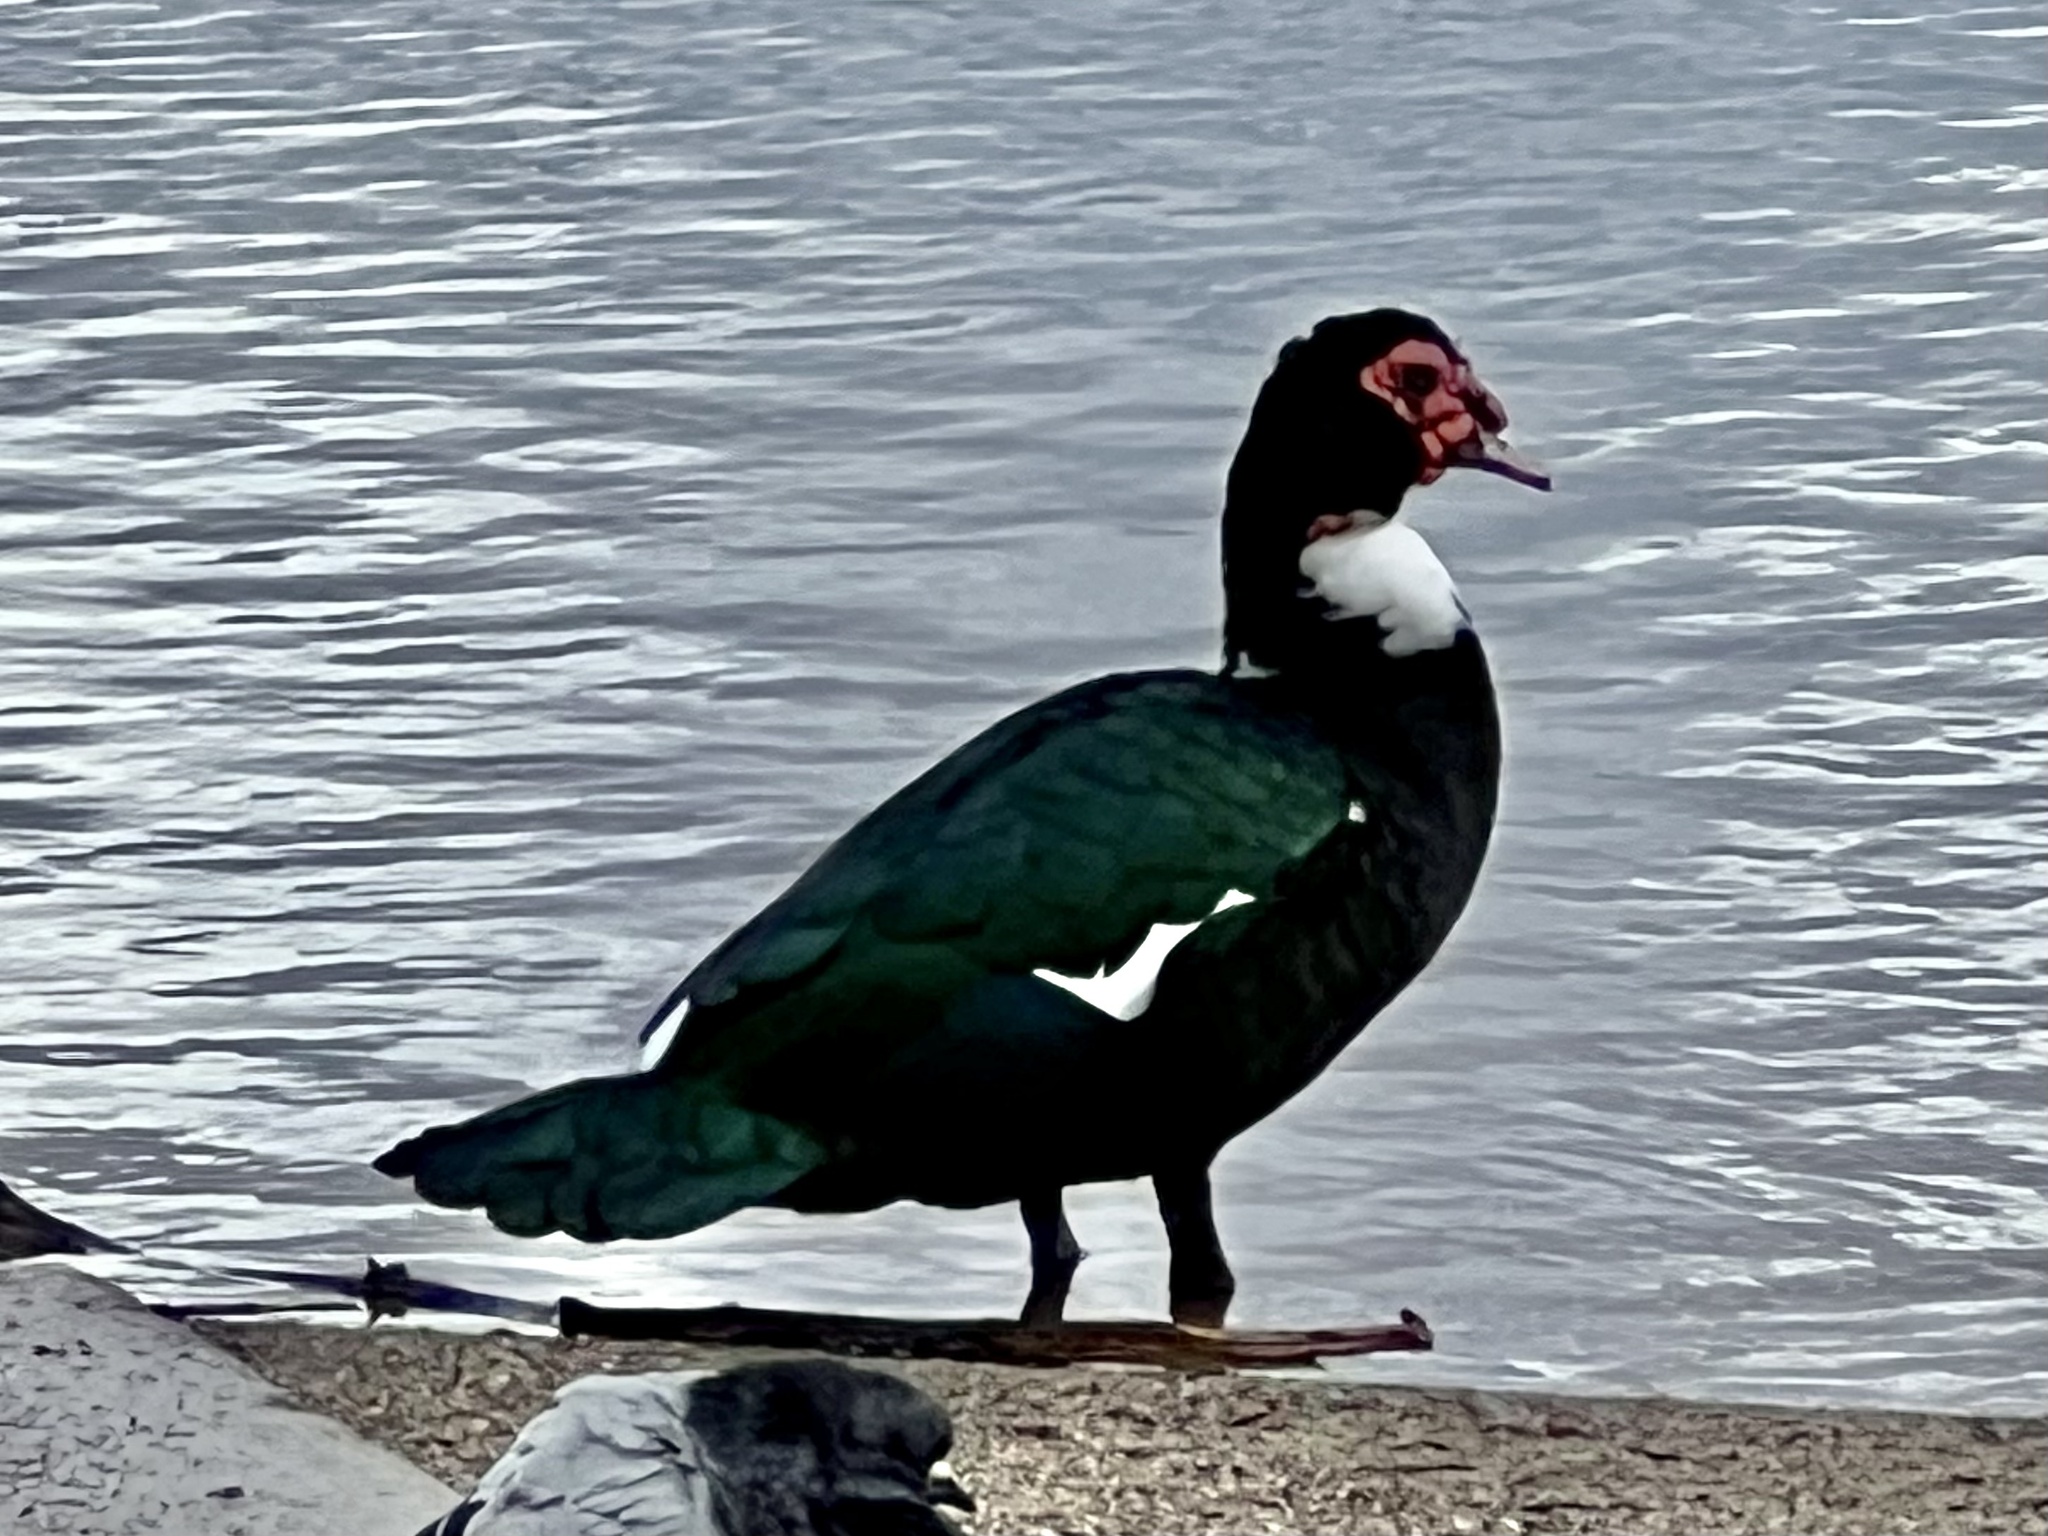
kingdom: Animalia
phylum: Chordata
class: Aves
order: Anseriformes
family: Anatidae
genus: Cairina
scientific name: Cairina moschata
